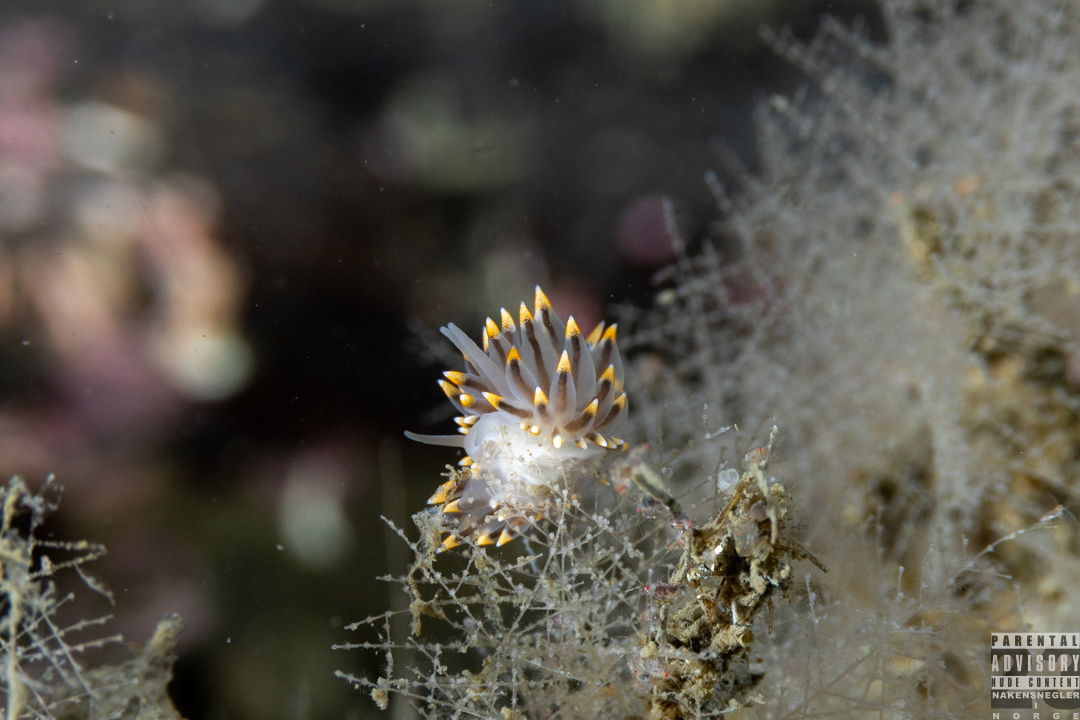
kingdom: Animalia
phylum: Mollusca
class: Gastropoda
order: Nudibranchia
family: Eubranchidae
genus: Eubranchus
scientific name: Eubranchus tricolor
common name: Painted balloon aeolis
